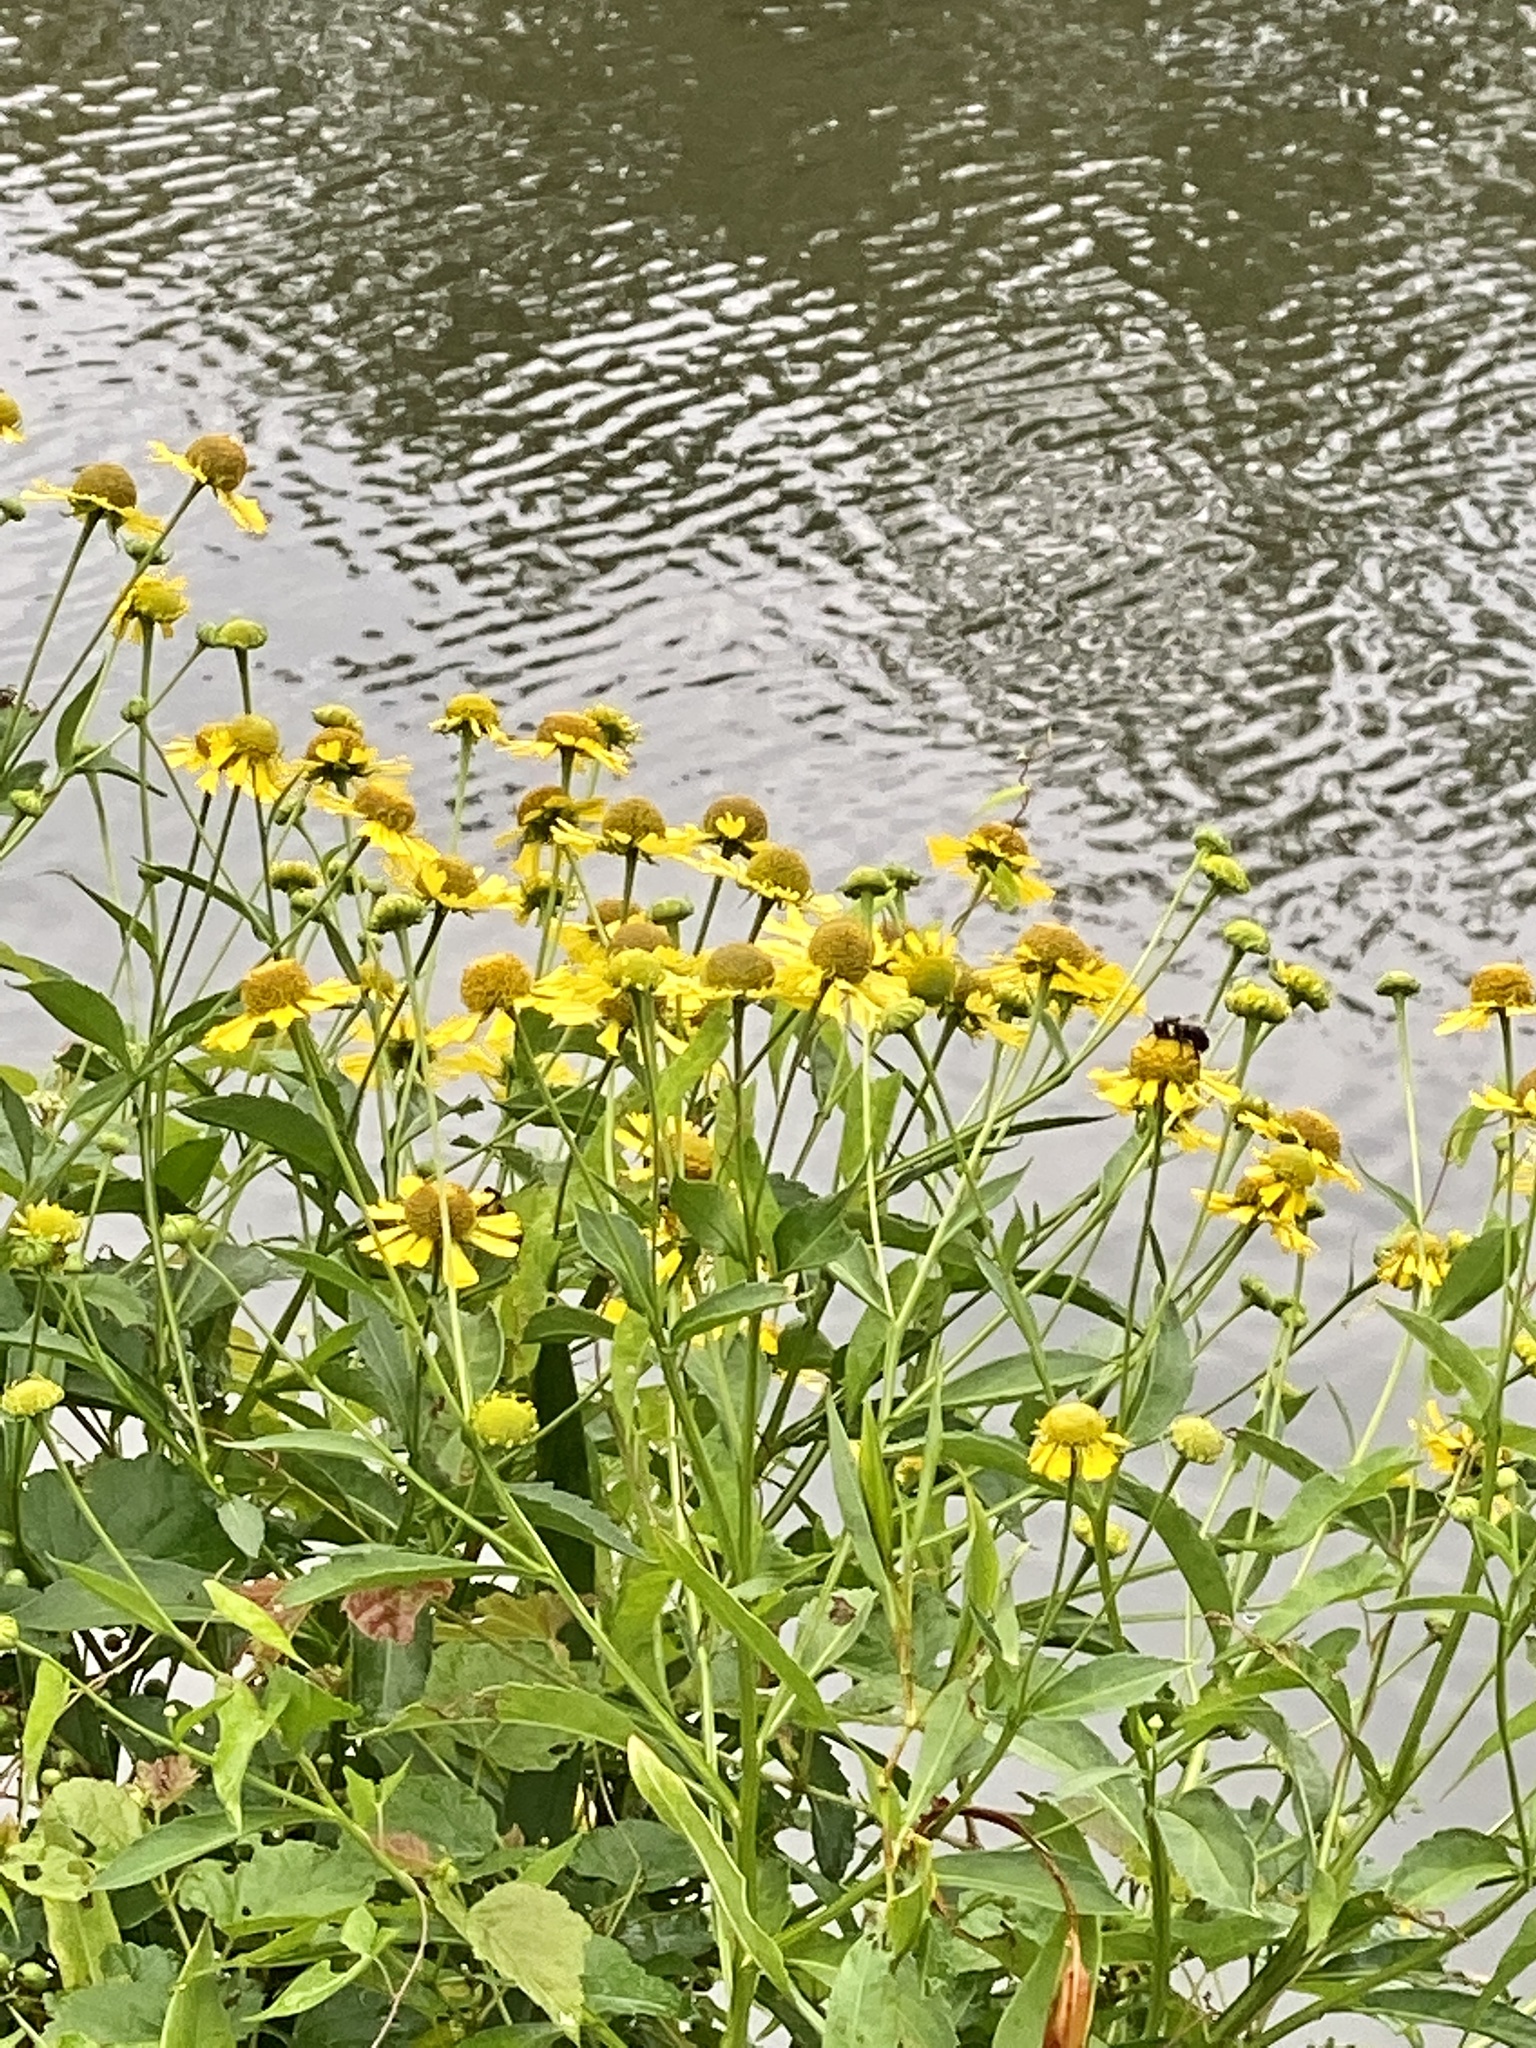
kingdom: Plantae
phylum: Tracheophyta
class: Magnoliopsida
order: Asterales
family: Asteraceae
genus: Helenium
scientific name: Helenium autumnale
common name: Sneezeweed
